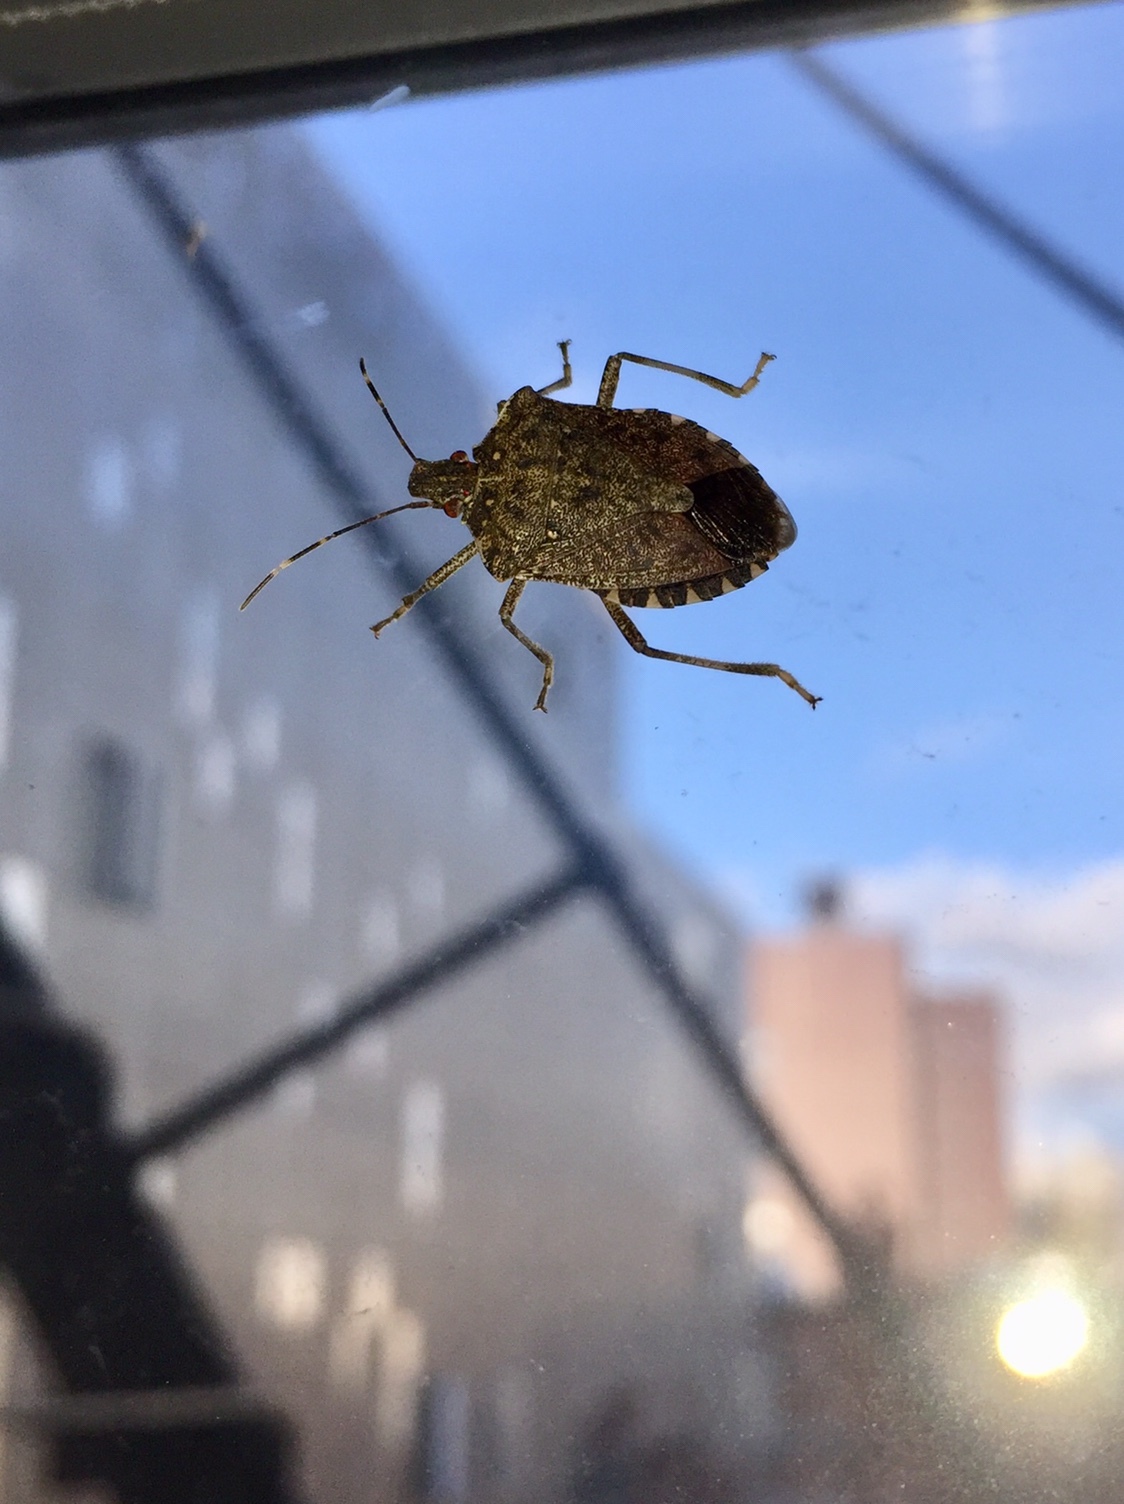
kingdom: Animalia
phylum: Arthropoda
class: Insecta
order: Hemiptera
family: Pentatomidae
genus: Halyomorpha
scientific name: Halyomorpha halys
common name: Brown marmorated stink bug
